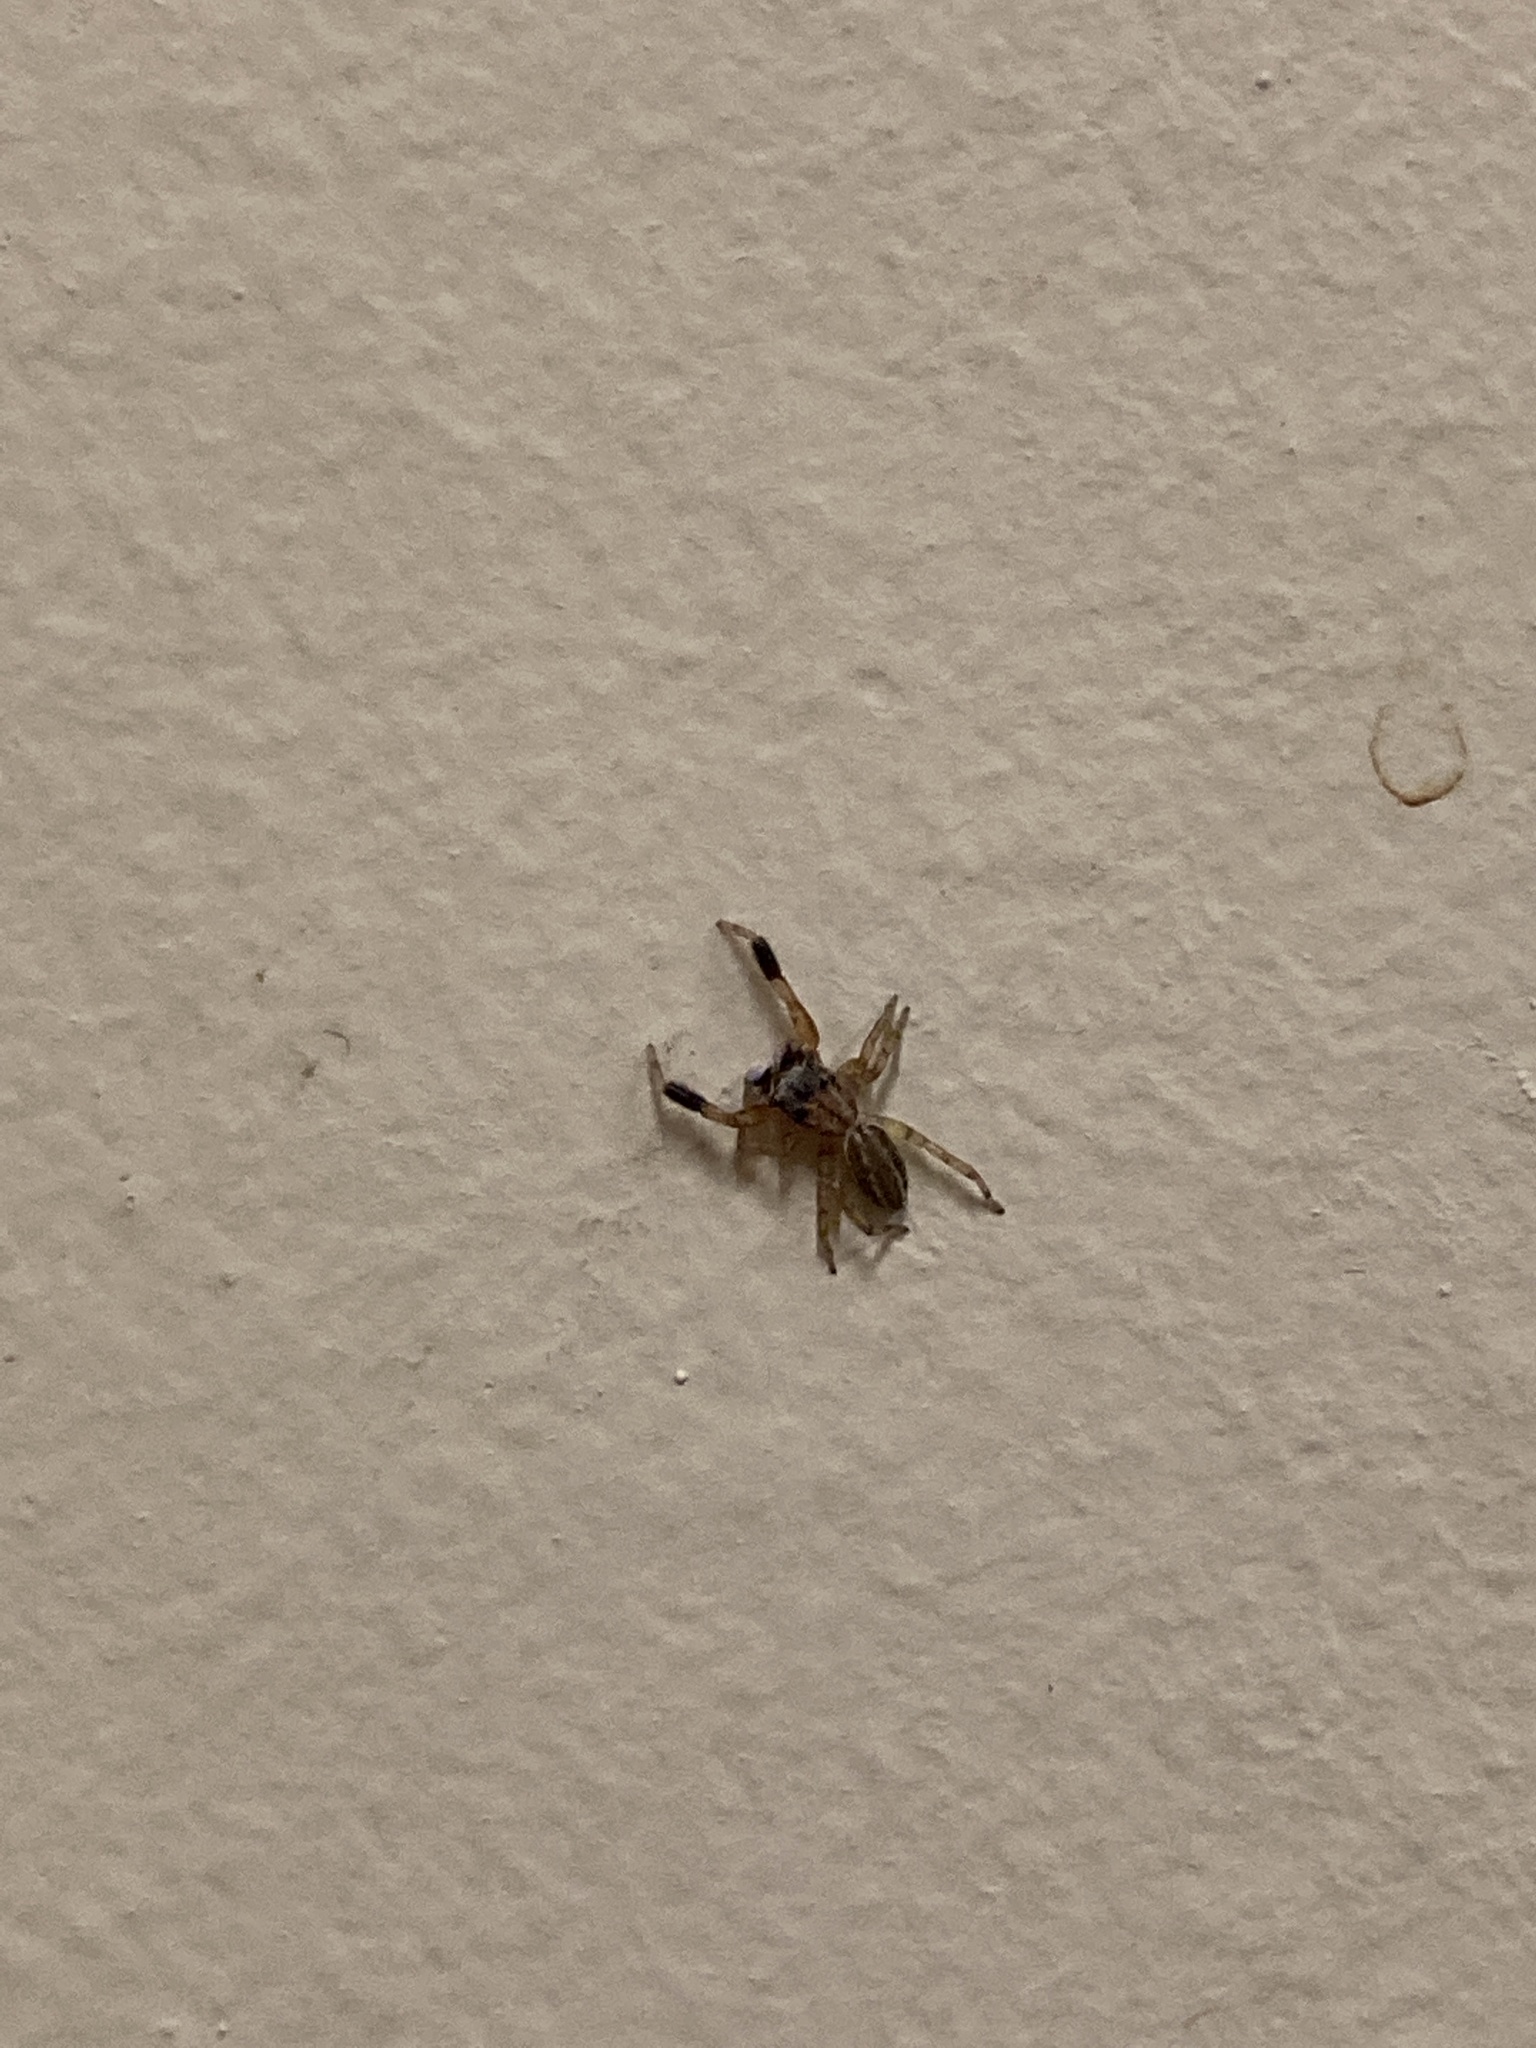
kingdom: Animalia
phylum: Arthropoda
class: Arachnida
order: Araneae
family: Salticidae
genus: Marpissa
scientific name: Marpissa lineata
